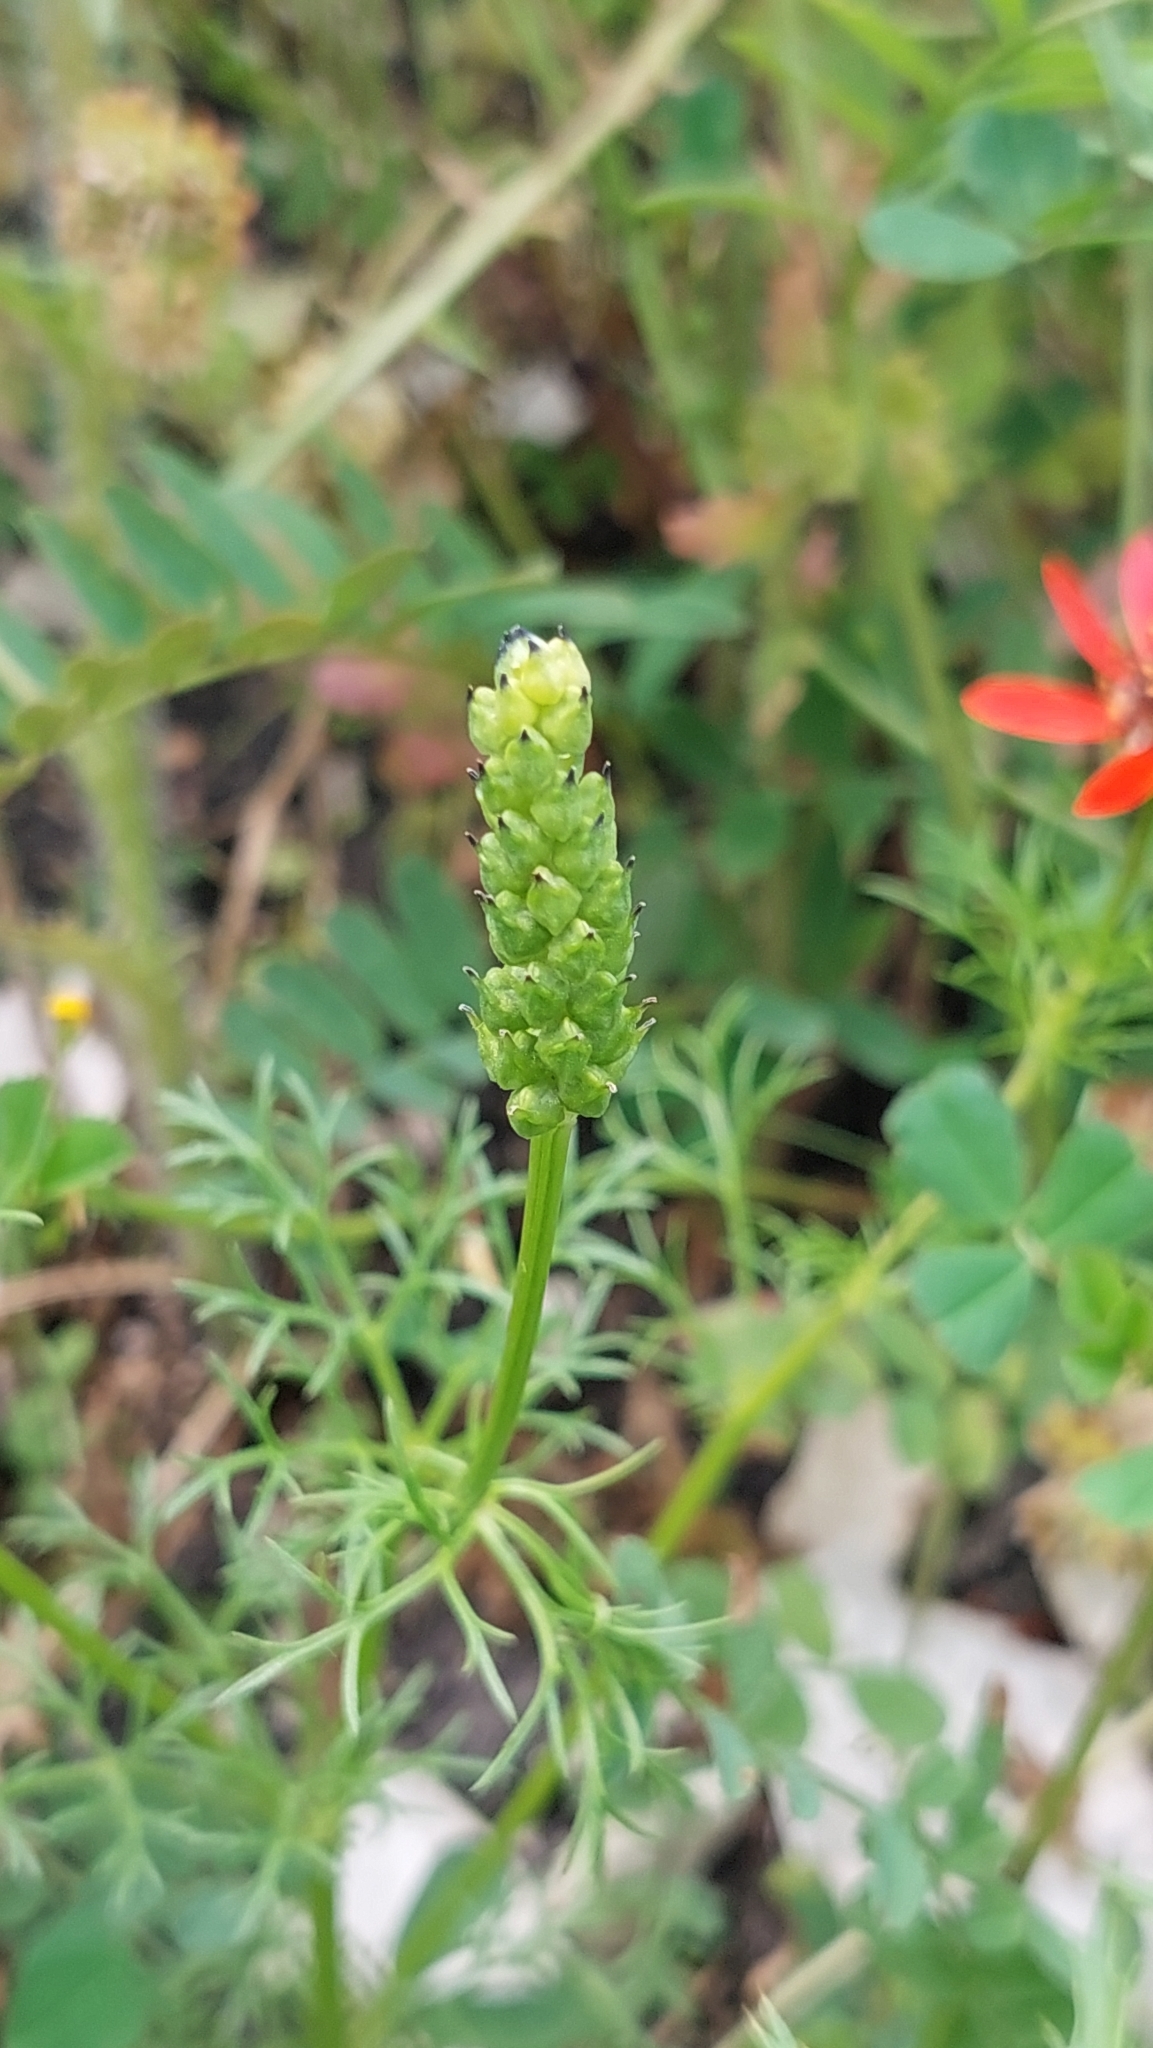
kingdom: Plantae
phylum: Tracheophyta
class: Magnoliopsida
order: Ranunculales
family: Ranunculaceae
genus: Adonis
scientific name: Adonis flammea
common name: Large pheasant's-eye
